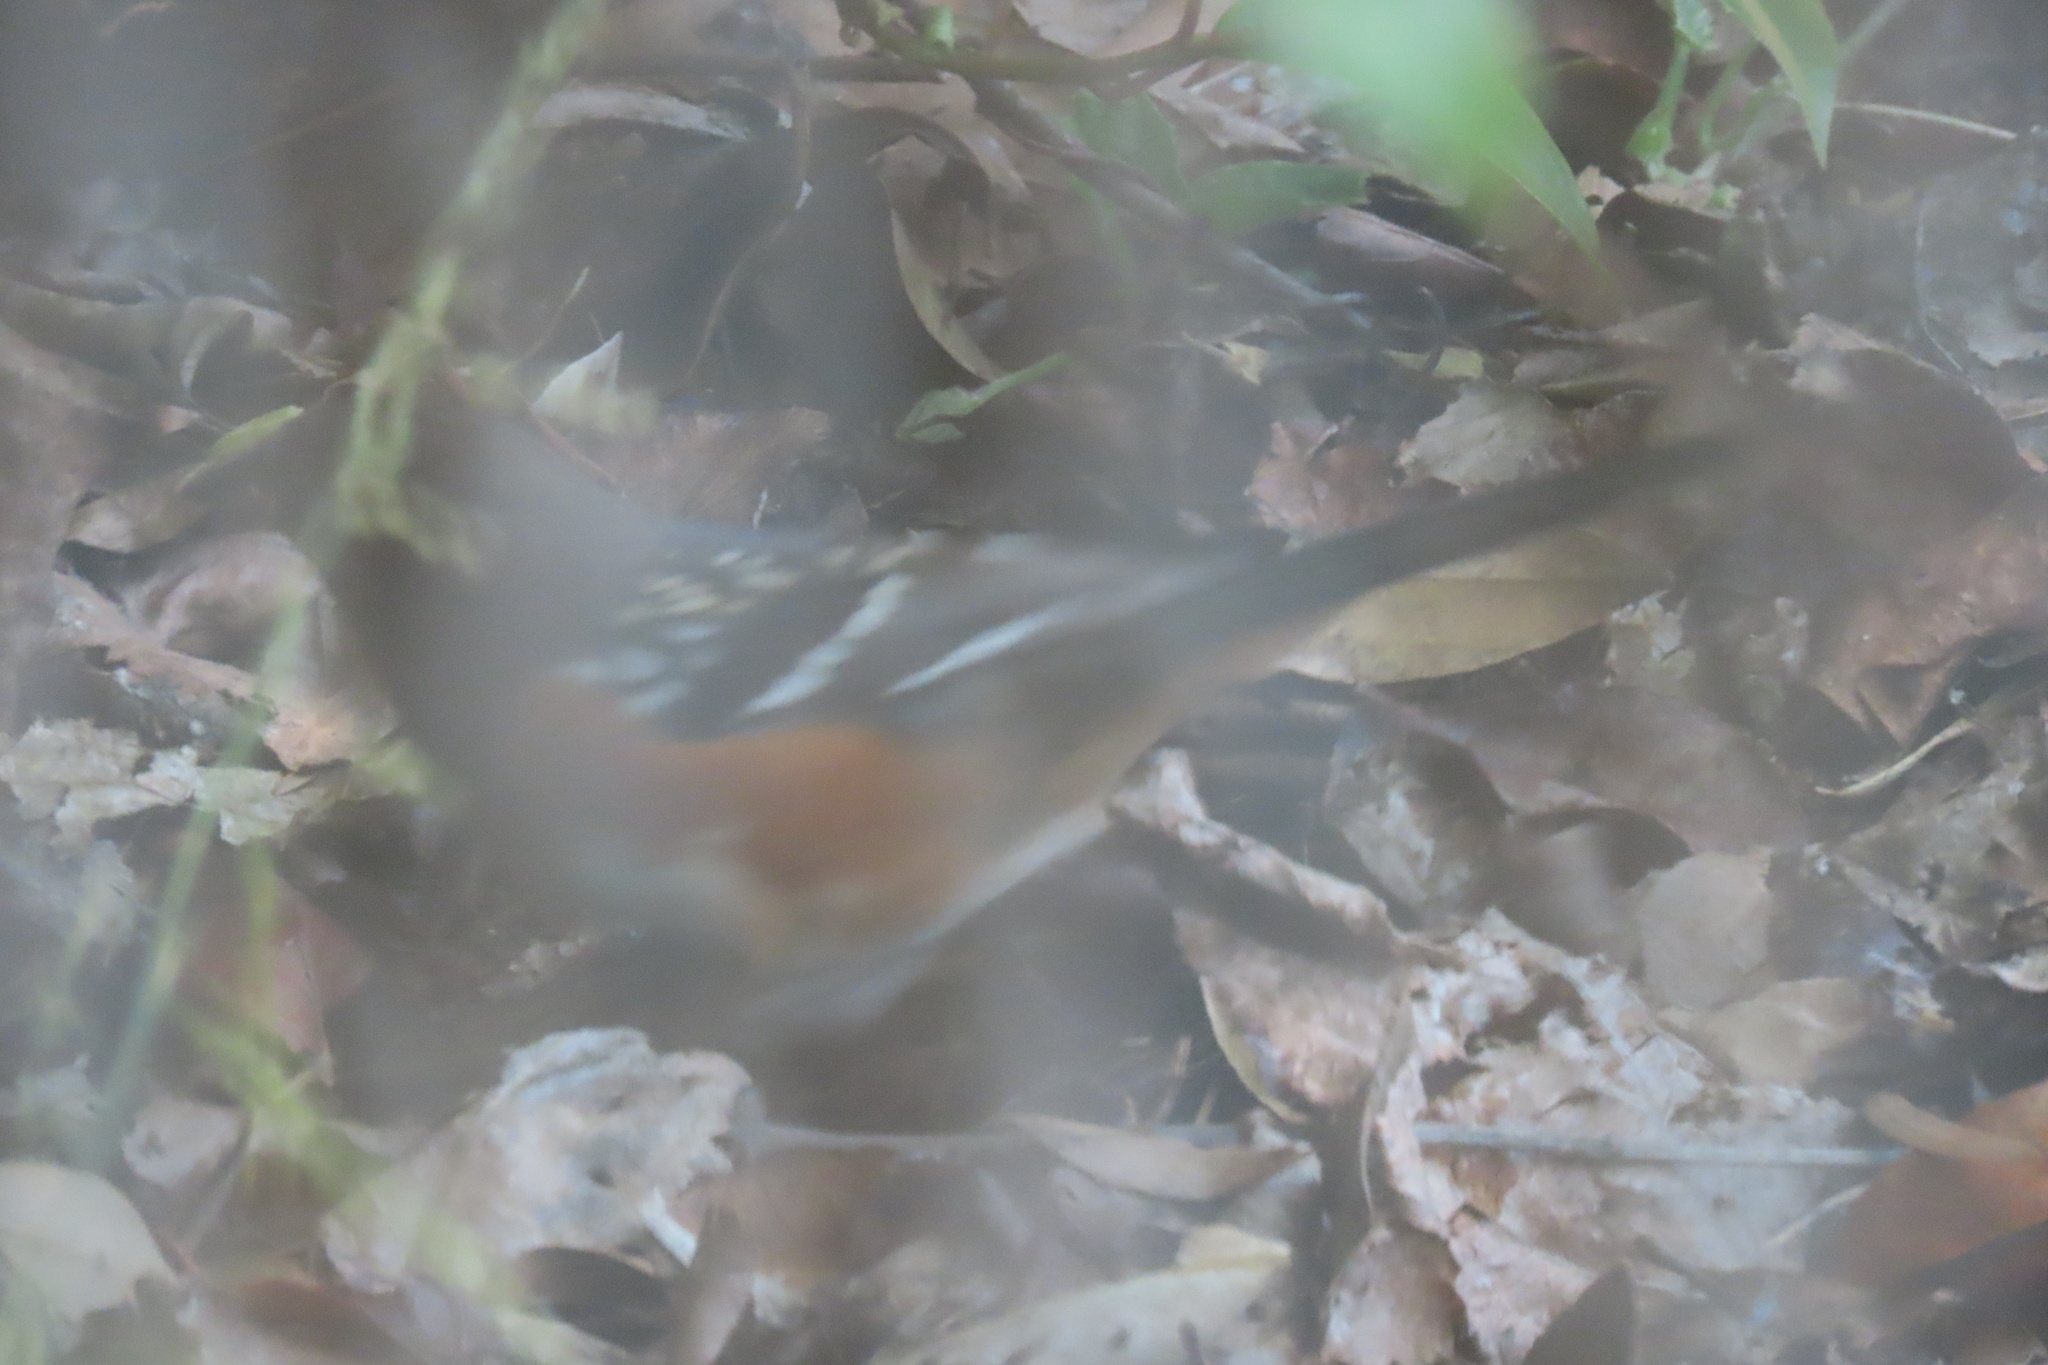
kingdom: Animalia
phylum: Chordata
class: Aves
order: Passeriformes
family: Passerellidae
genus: Pipilo
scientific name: Pipilo maculatus
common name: Spotted towhee
